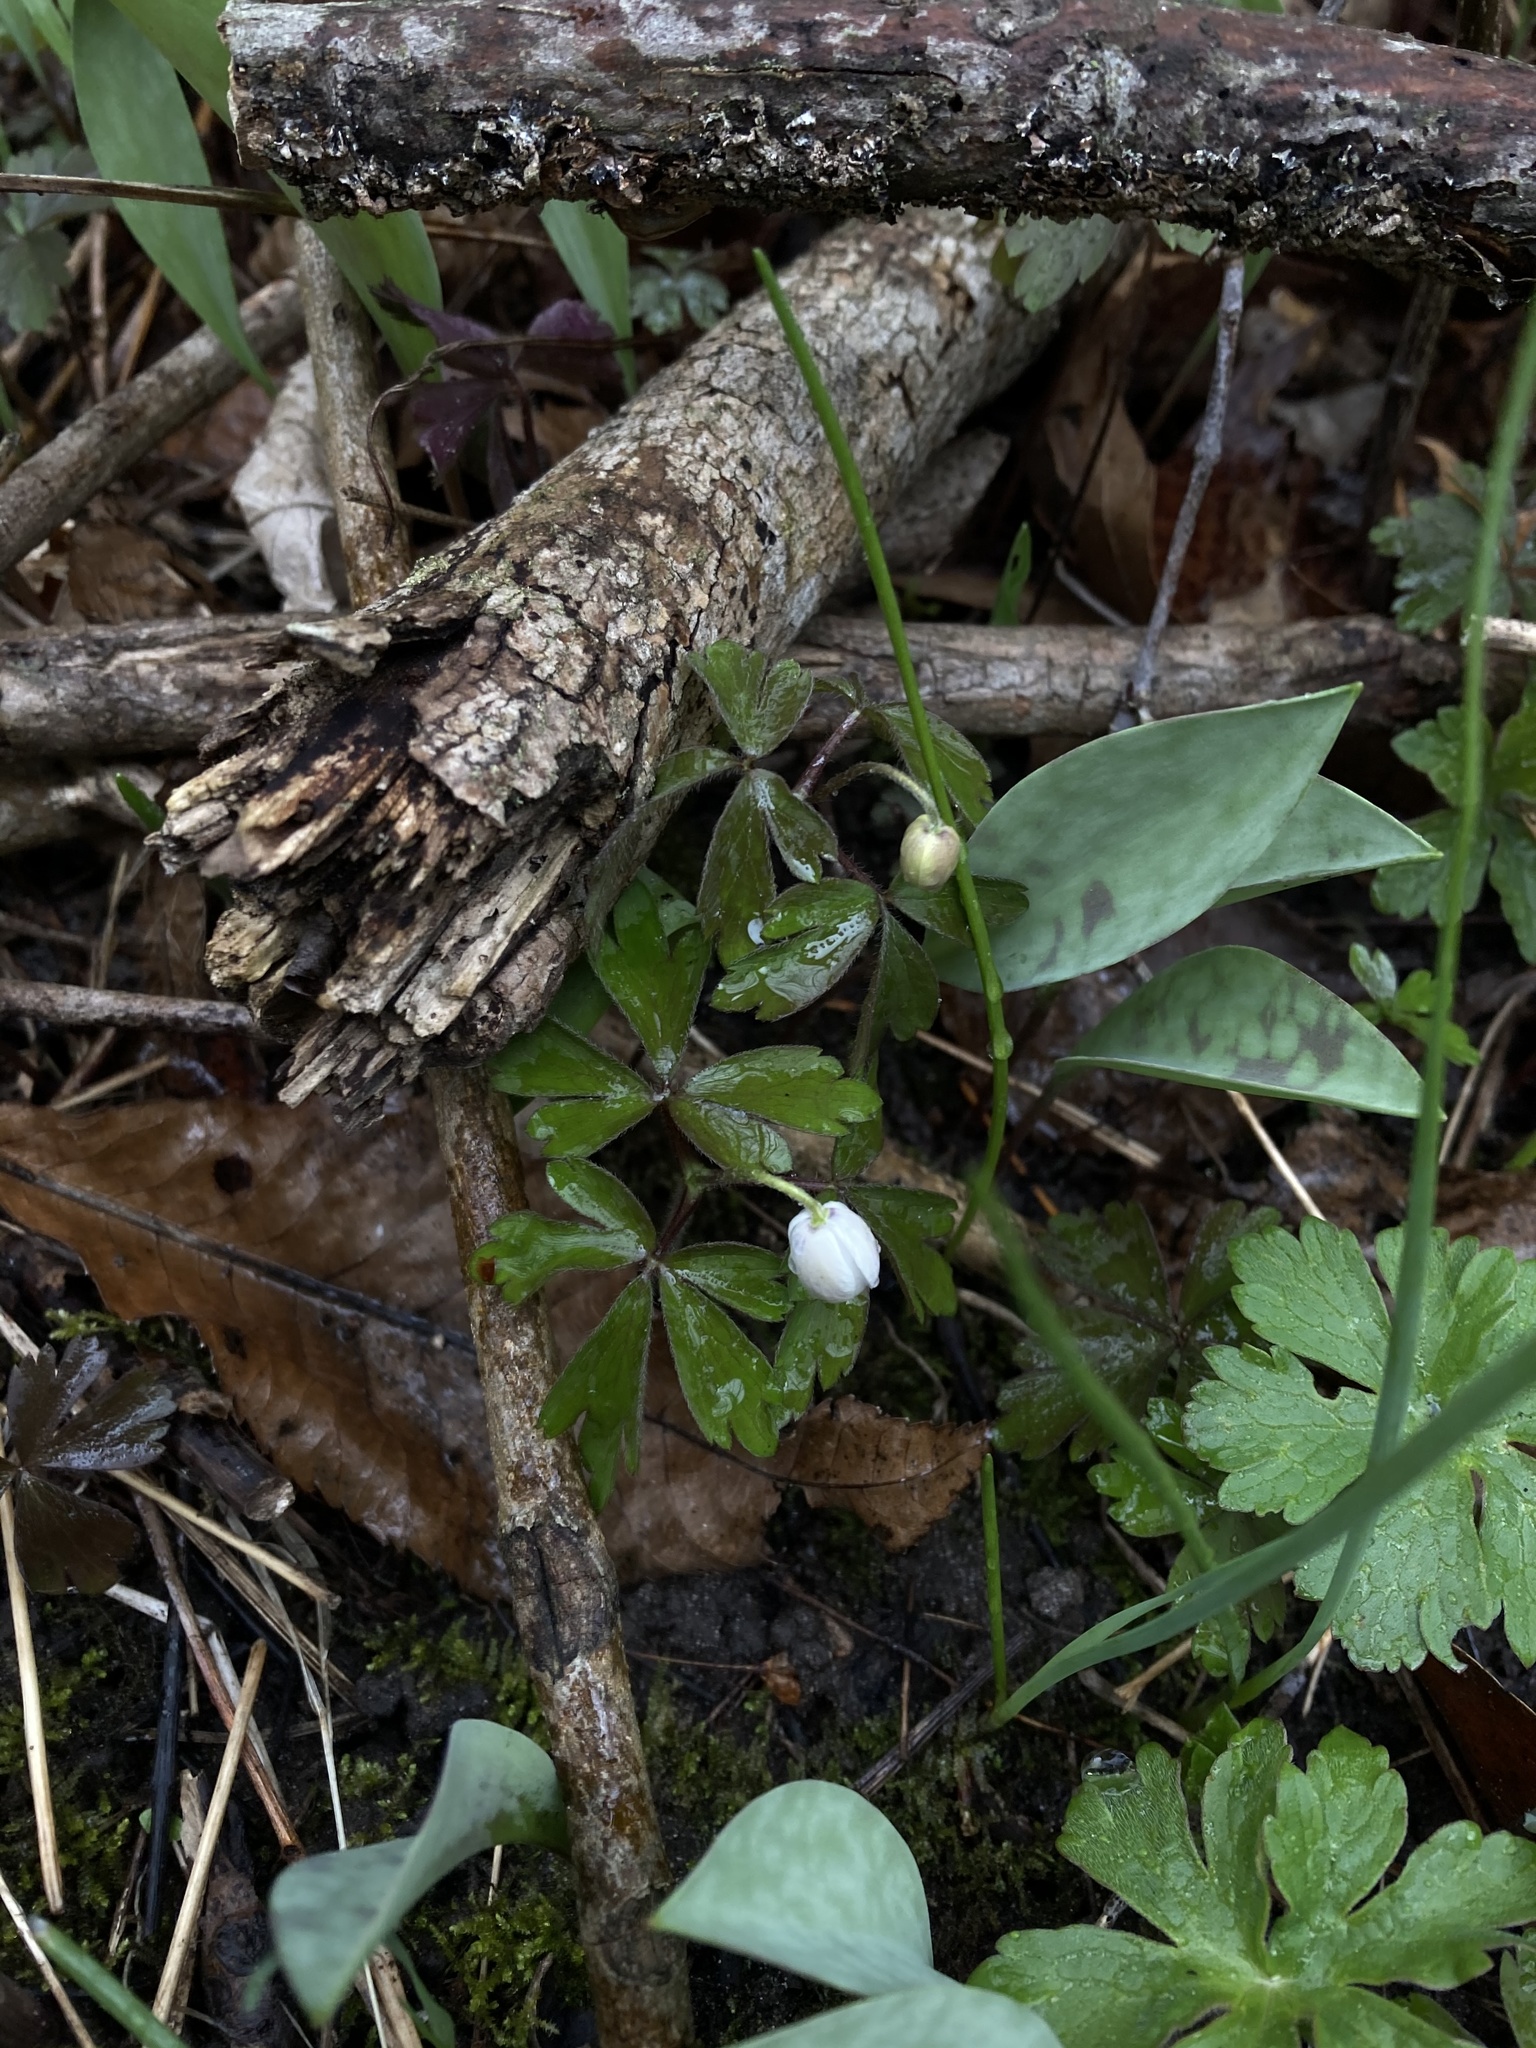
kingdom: Plantae
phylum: Tracheophyta
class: Magnoliopsida
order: Ranunculales
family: Ranunculaceae
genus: Anemone
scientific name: Anemone quinquefolia
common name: Wood anemone
